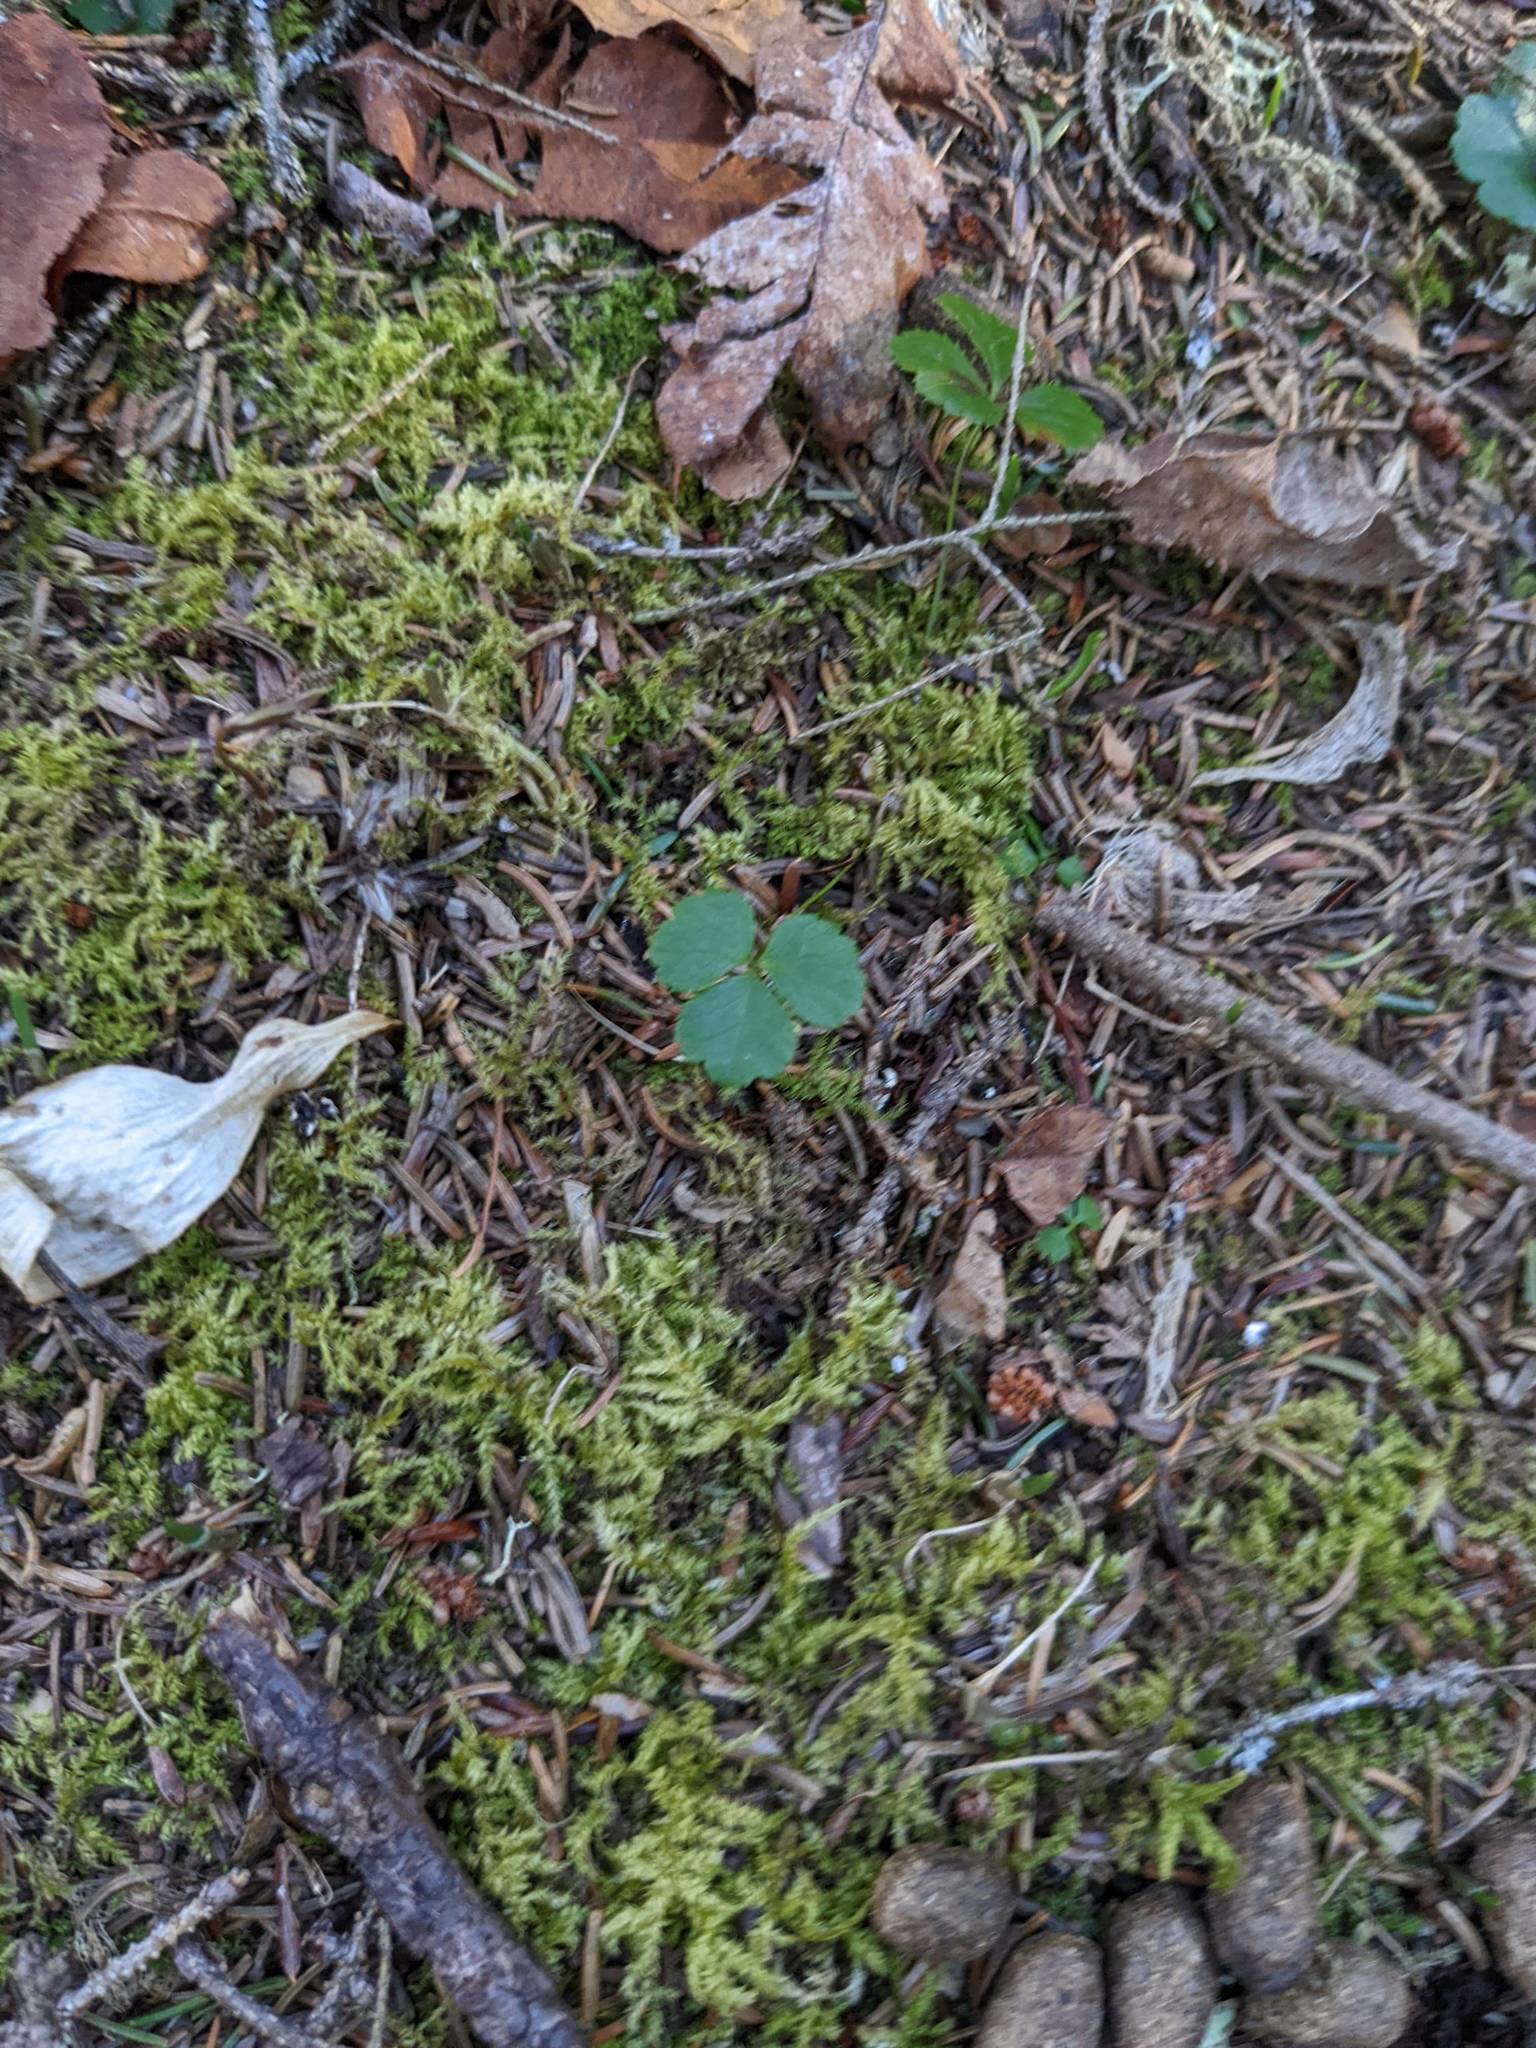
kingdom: Plantae
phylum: Tracheophyta
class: Magnoliopsida
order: Ranunculales
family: Ranunculaceae
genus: Coptis
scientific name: Coptis trifolia
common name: Canker-root
